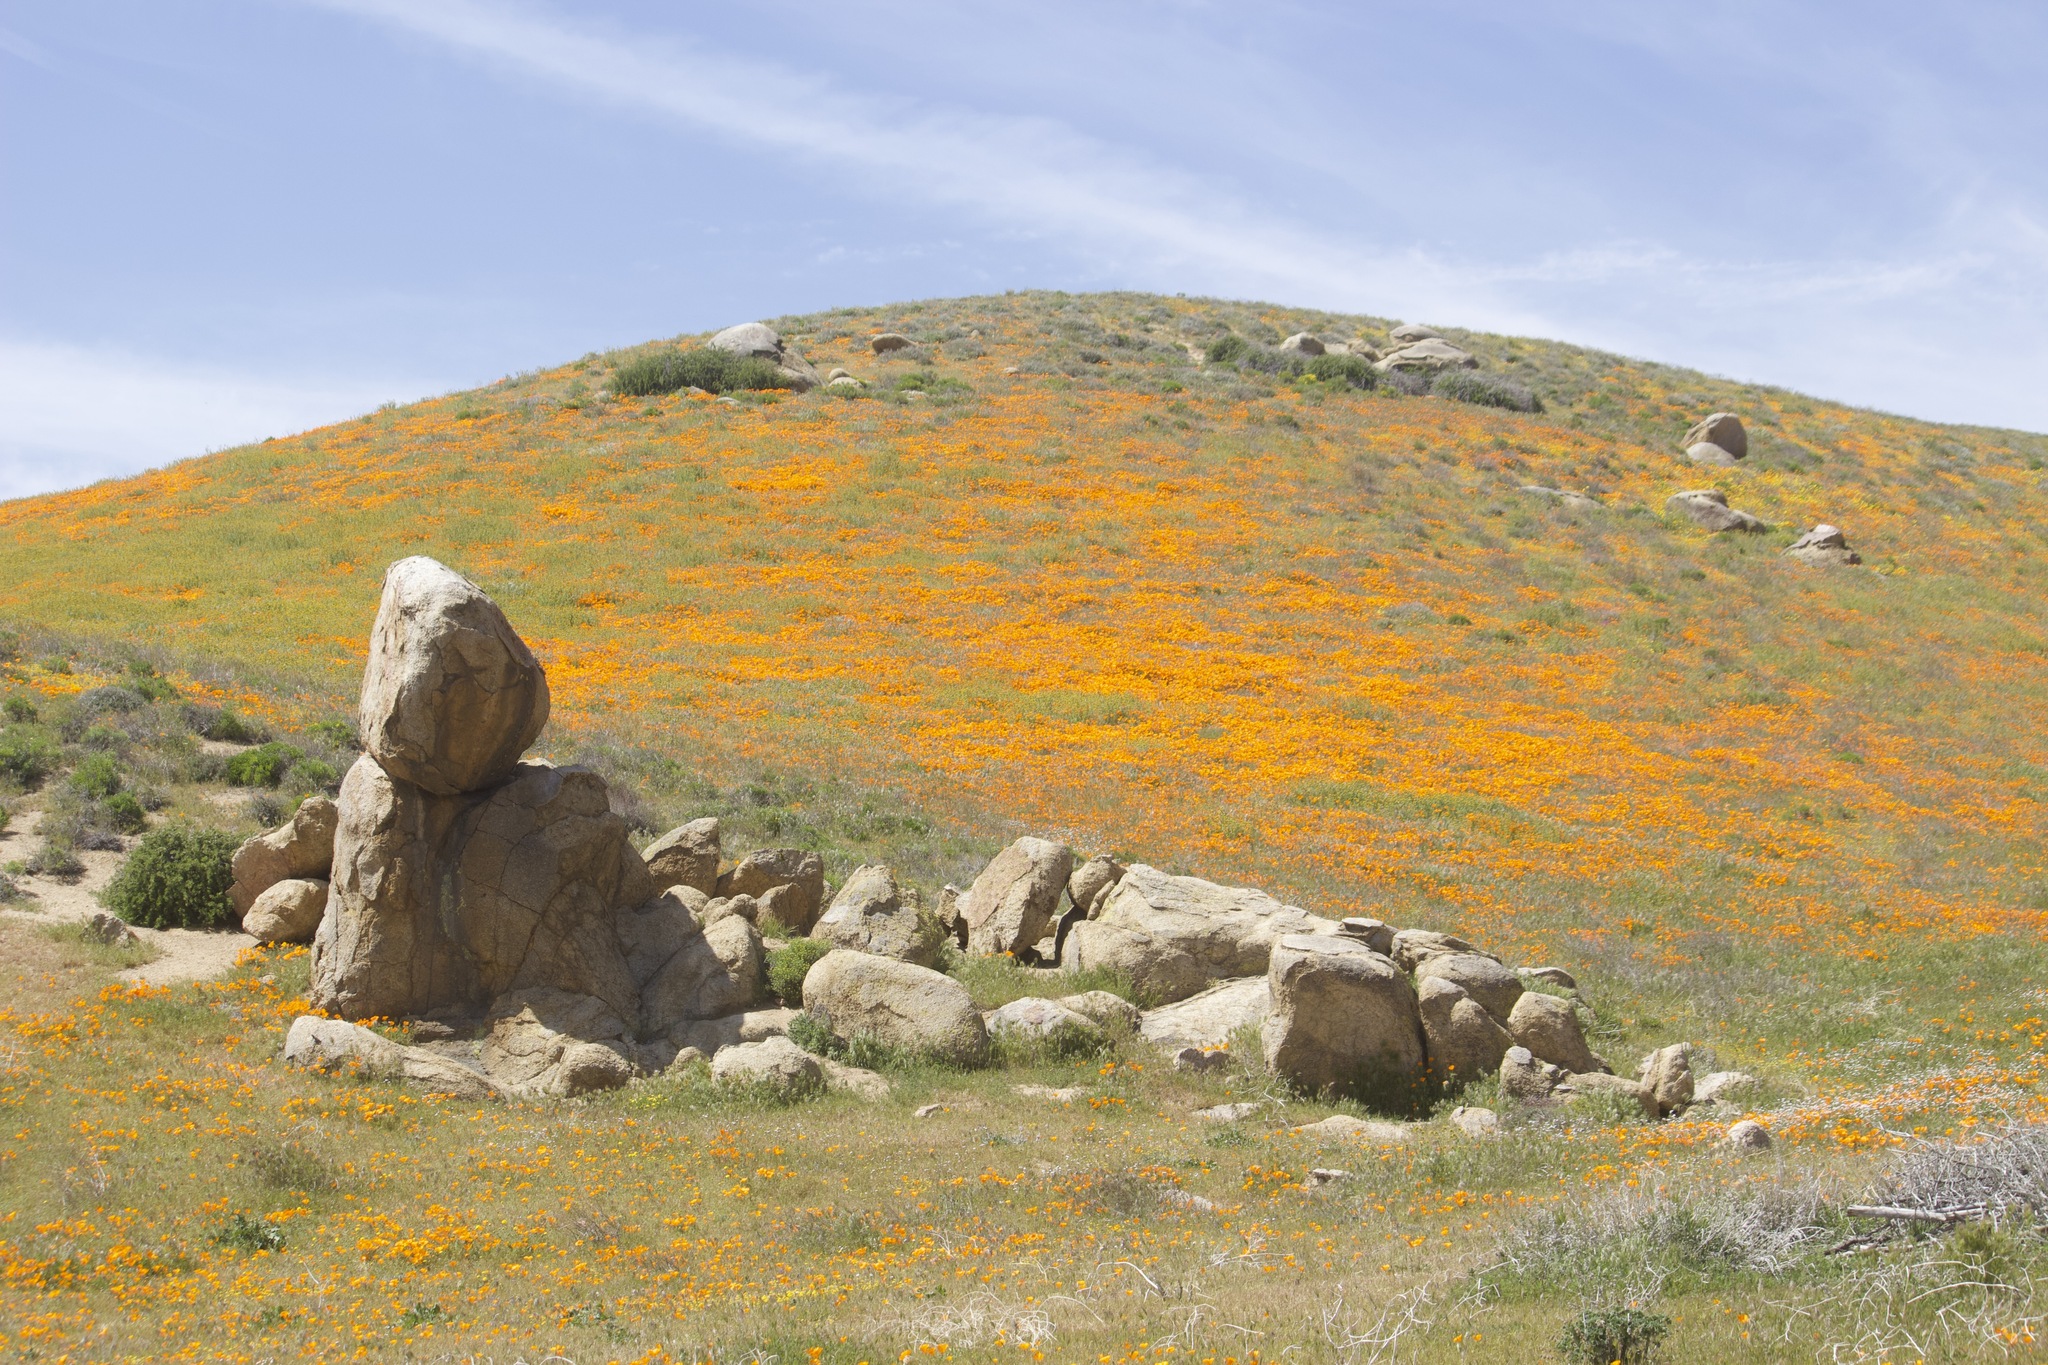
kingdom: Plantae
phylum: Tracheophyta
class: Magnoliopsida
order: Ranunculales
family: Papaveraceae
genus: Eschscholzia
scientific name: Eschscholzia californica
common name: California poppy
